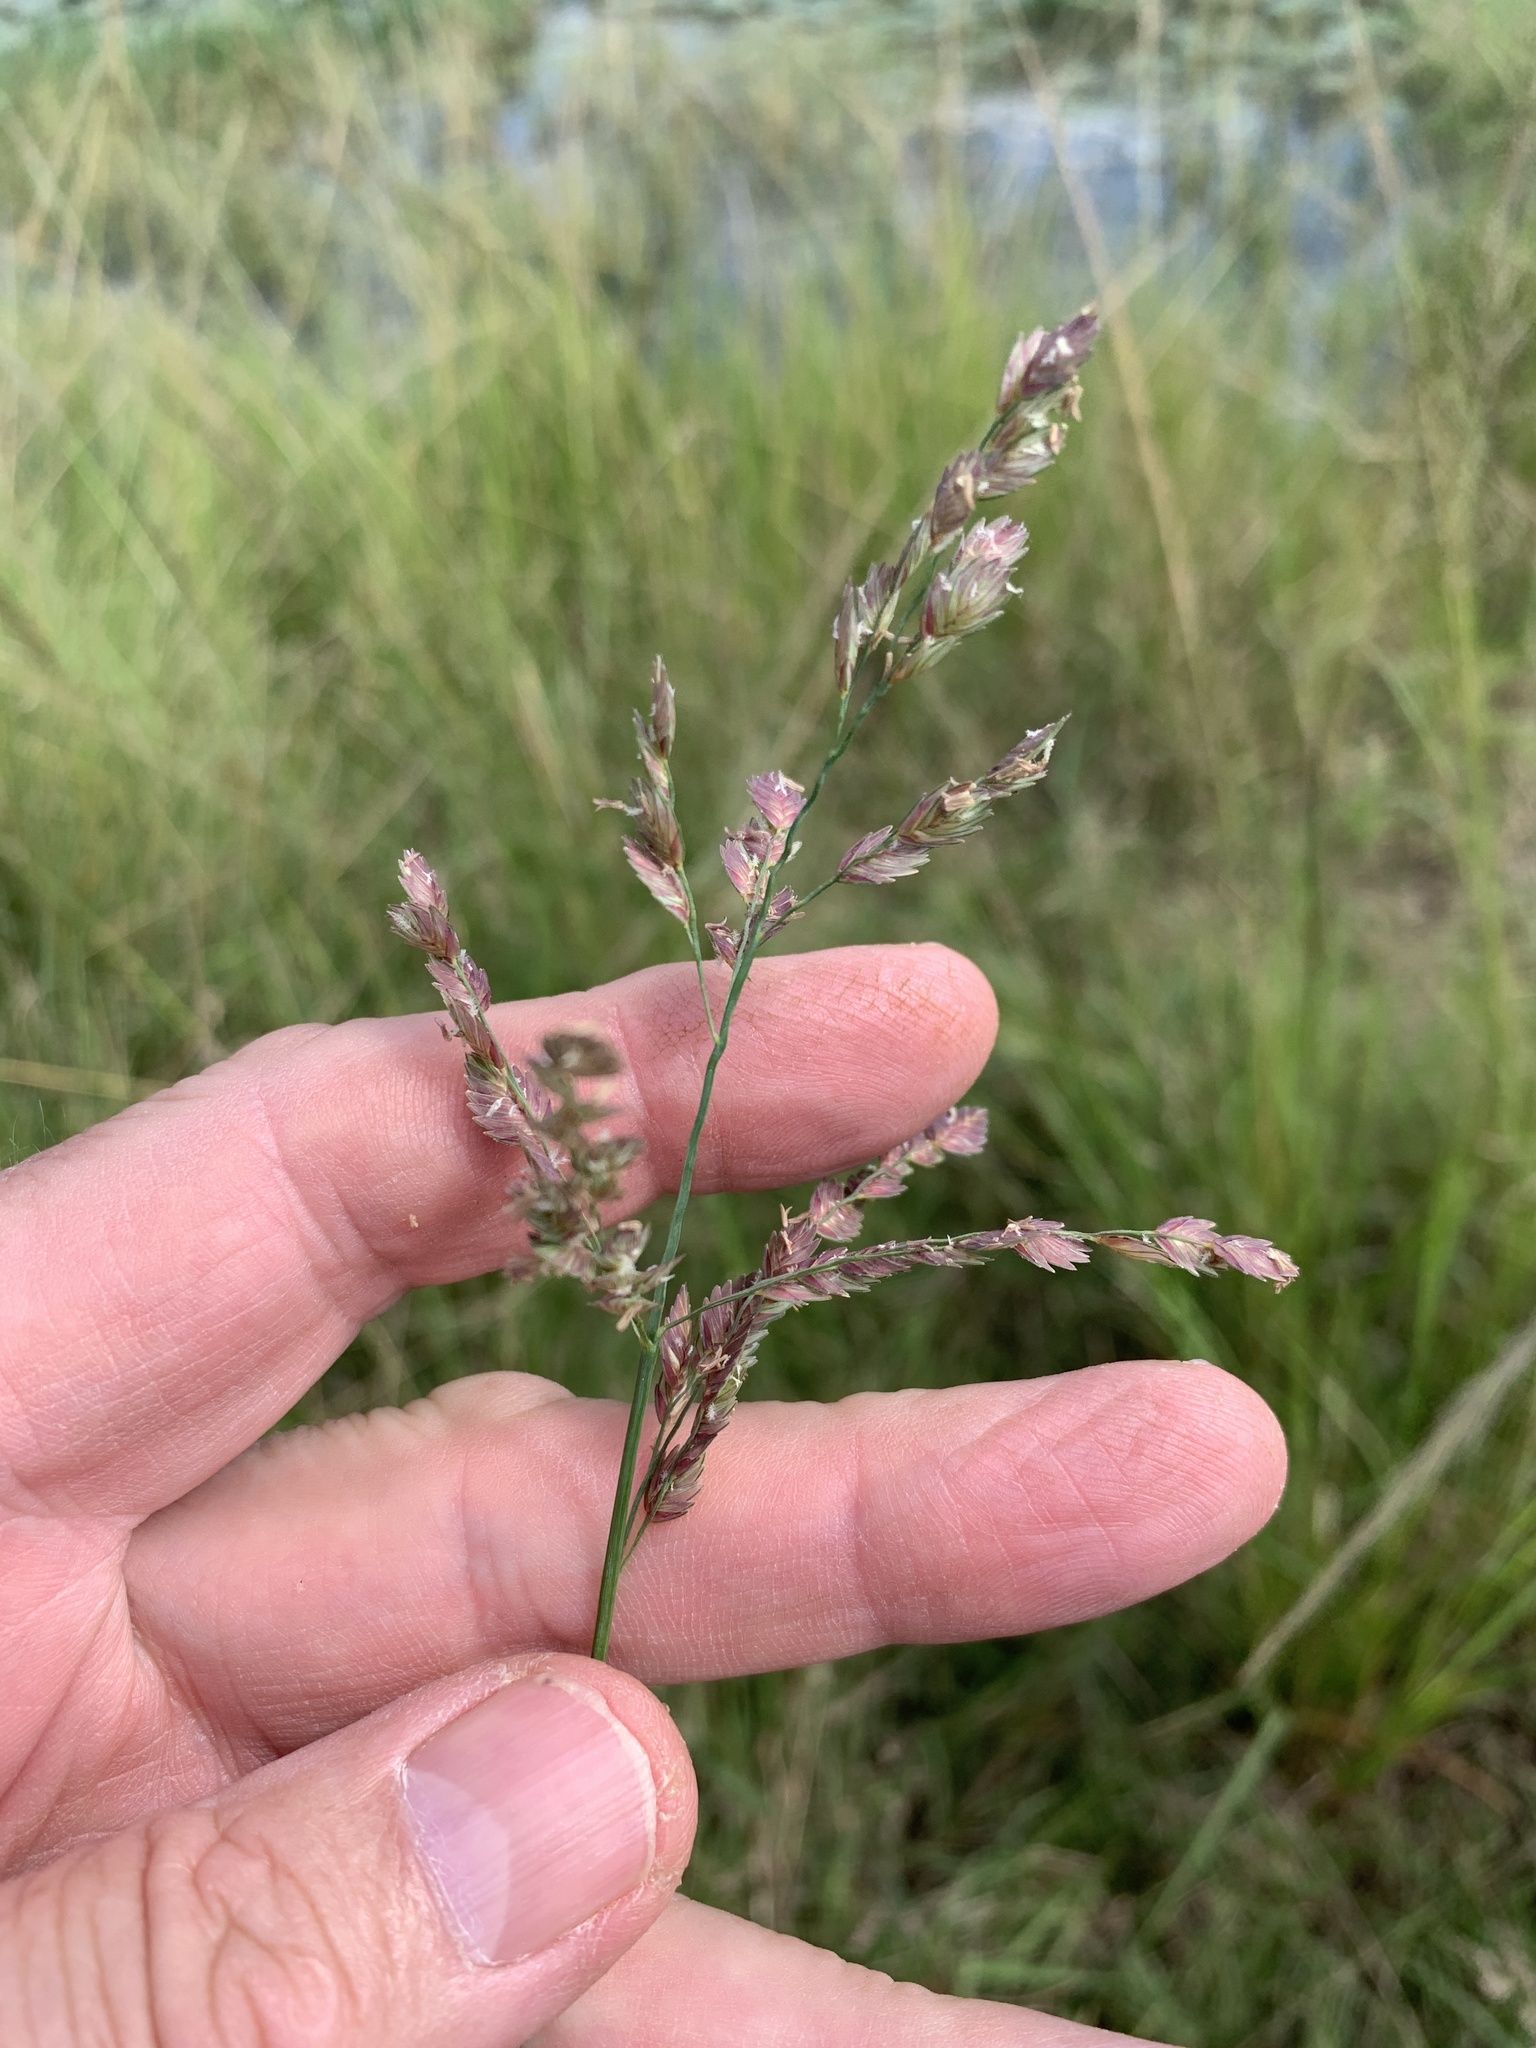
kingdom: Plantae
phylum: Tracheophyta
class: Liliopsida
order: Poales
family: Poaceae
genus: Eragrostis
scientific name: Eragrostis superba
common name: Wilman lovegrass
